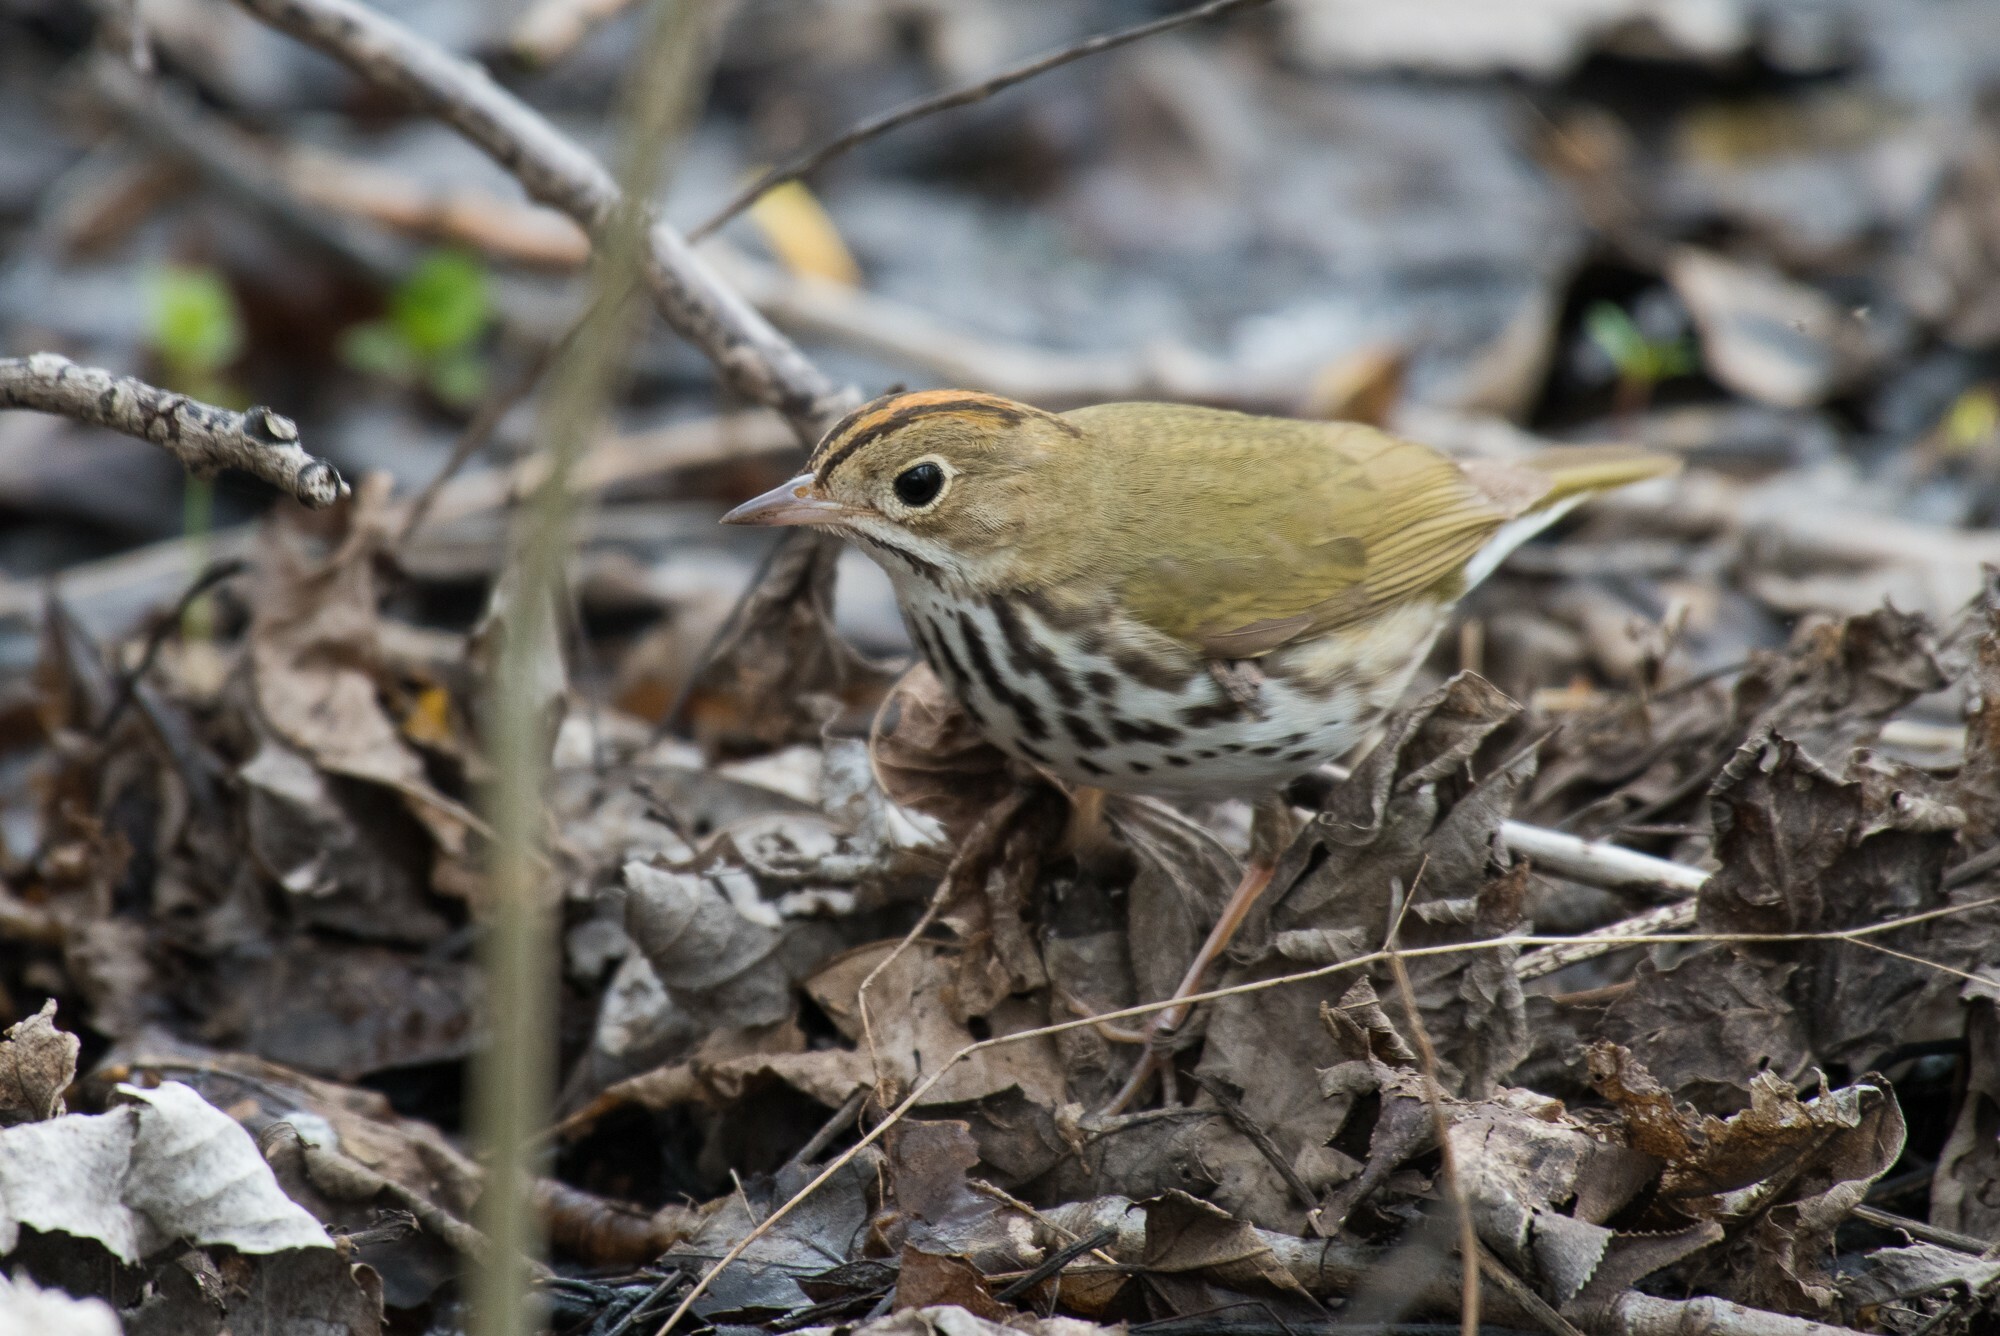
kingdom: Animalia
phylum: Chordata
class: Aves
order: Passeriformes
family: Parulidae
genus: Seiurus
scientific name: Seiurus aurocapilla
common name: Ovenbird
